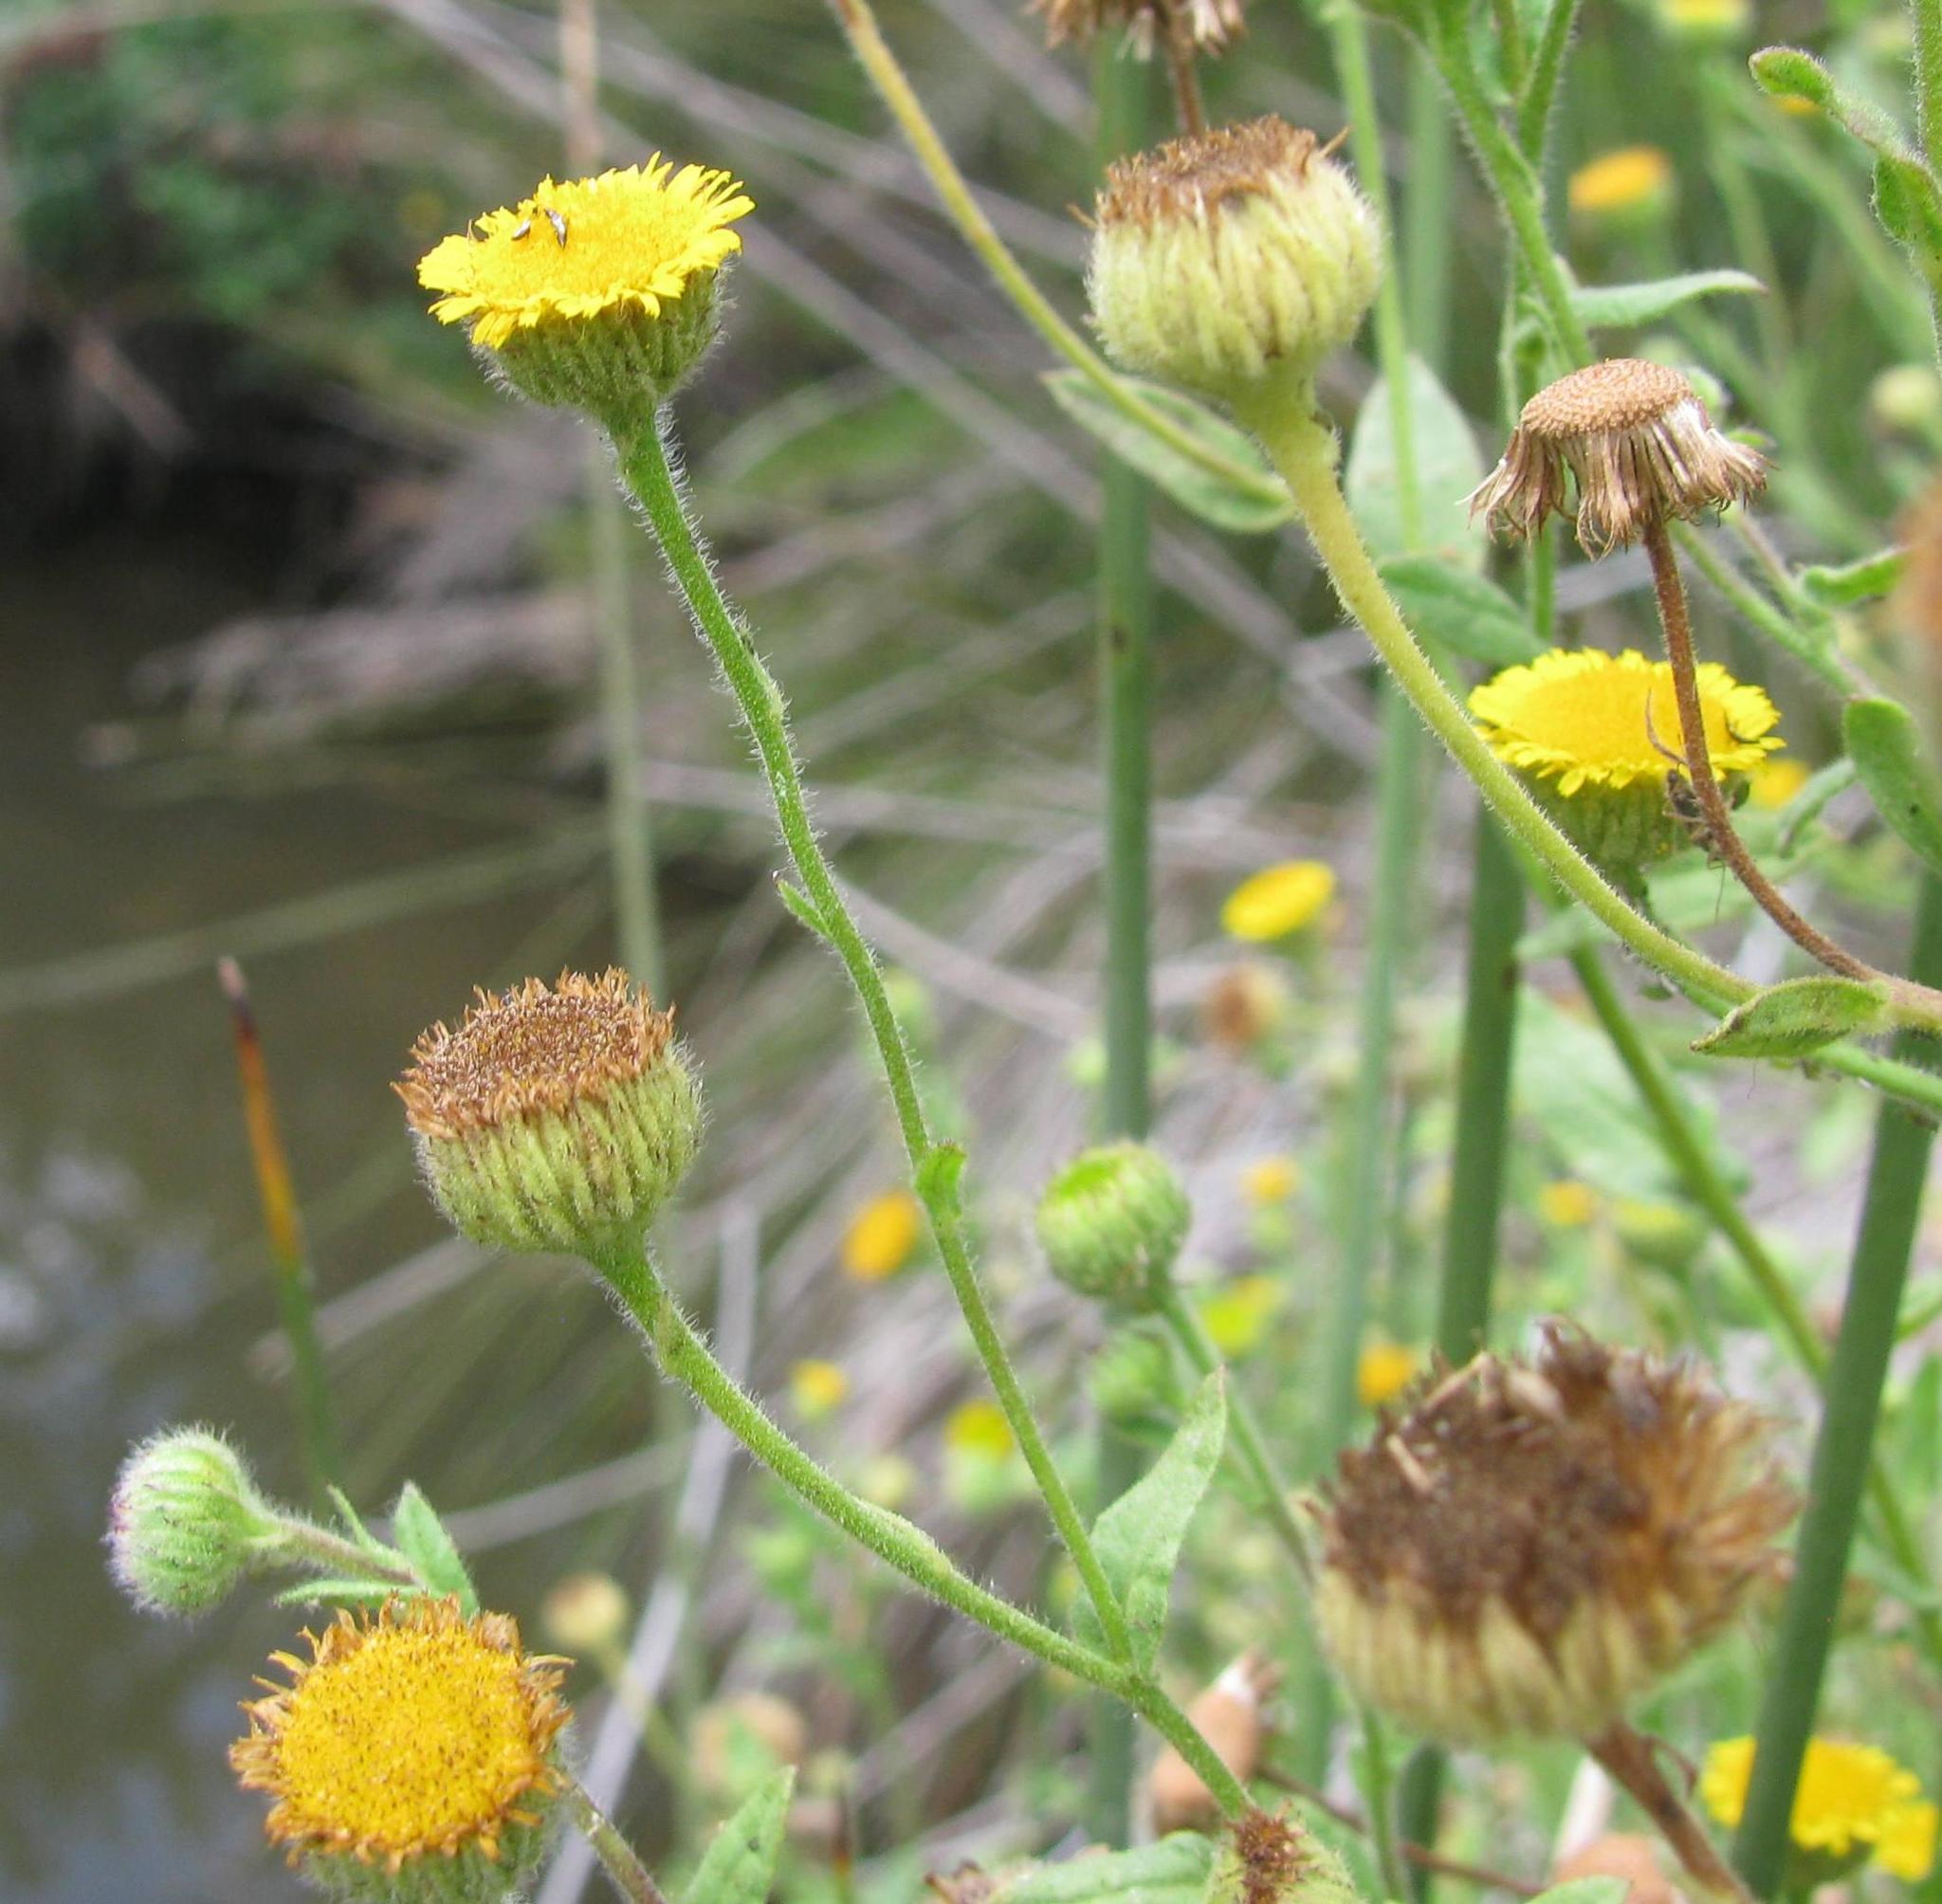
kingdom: Plantae
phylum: Tracheophyta
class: Magnoliopsida
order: Asterales
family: Asteraceae
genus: Pulicaria
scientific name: Pulicaria scabra
